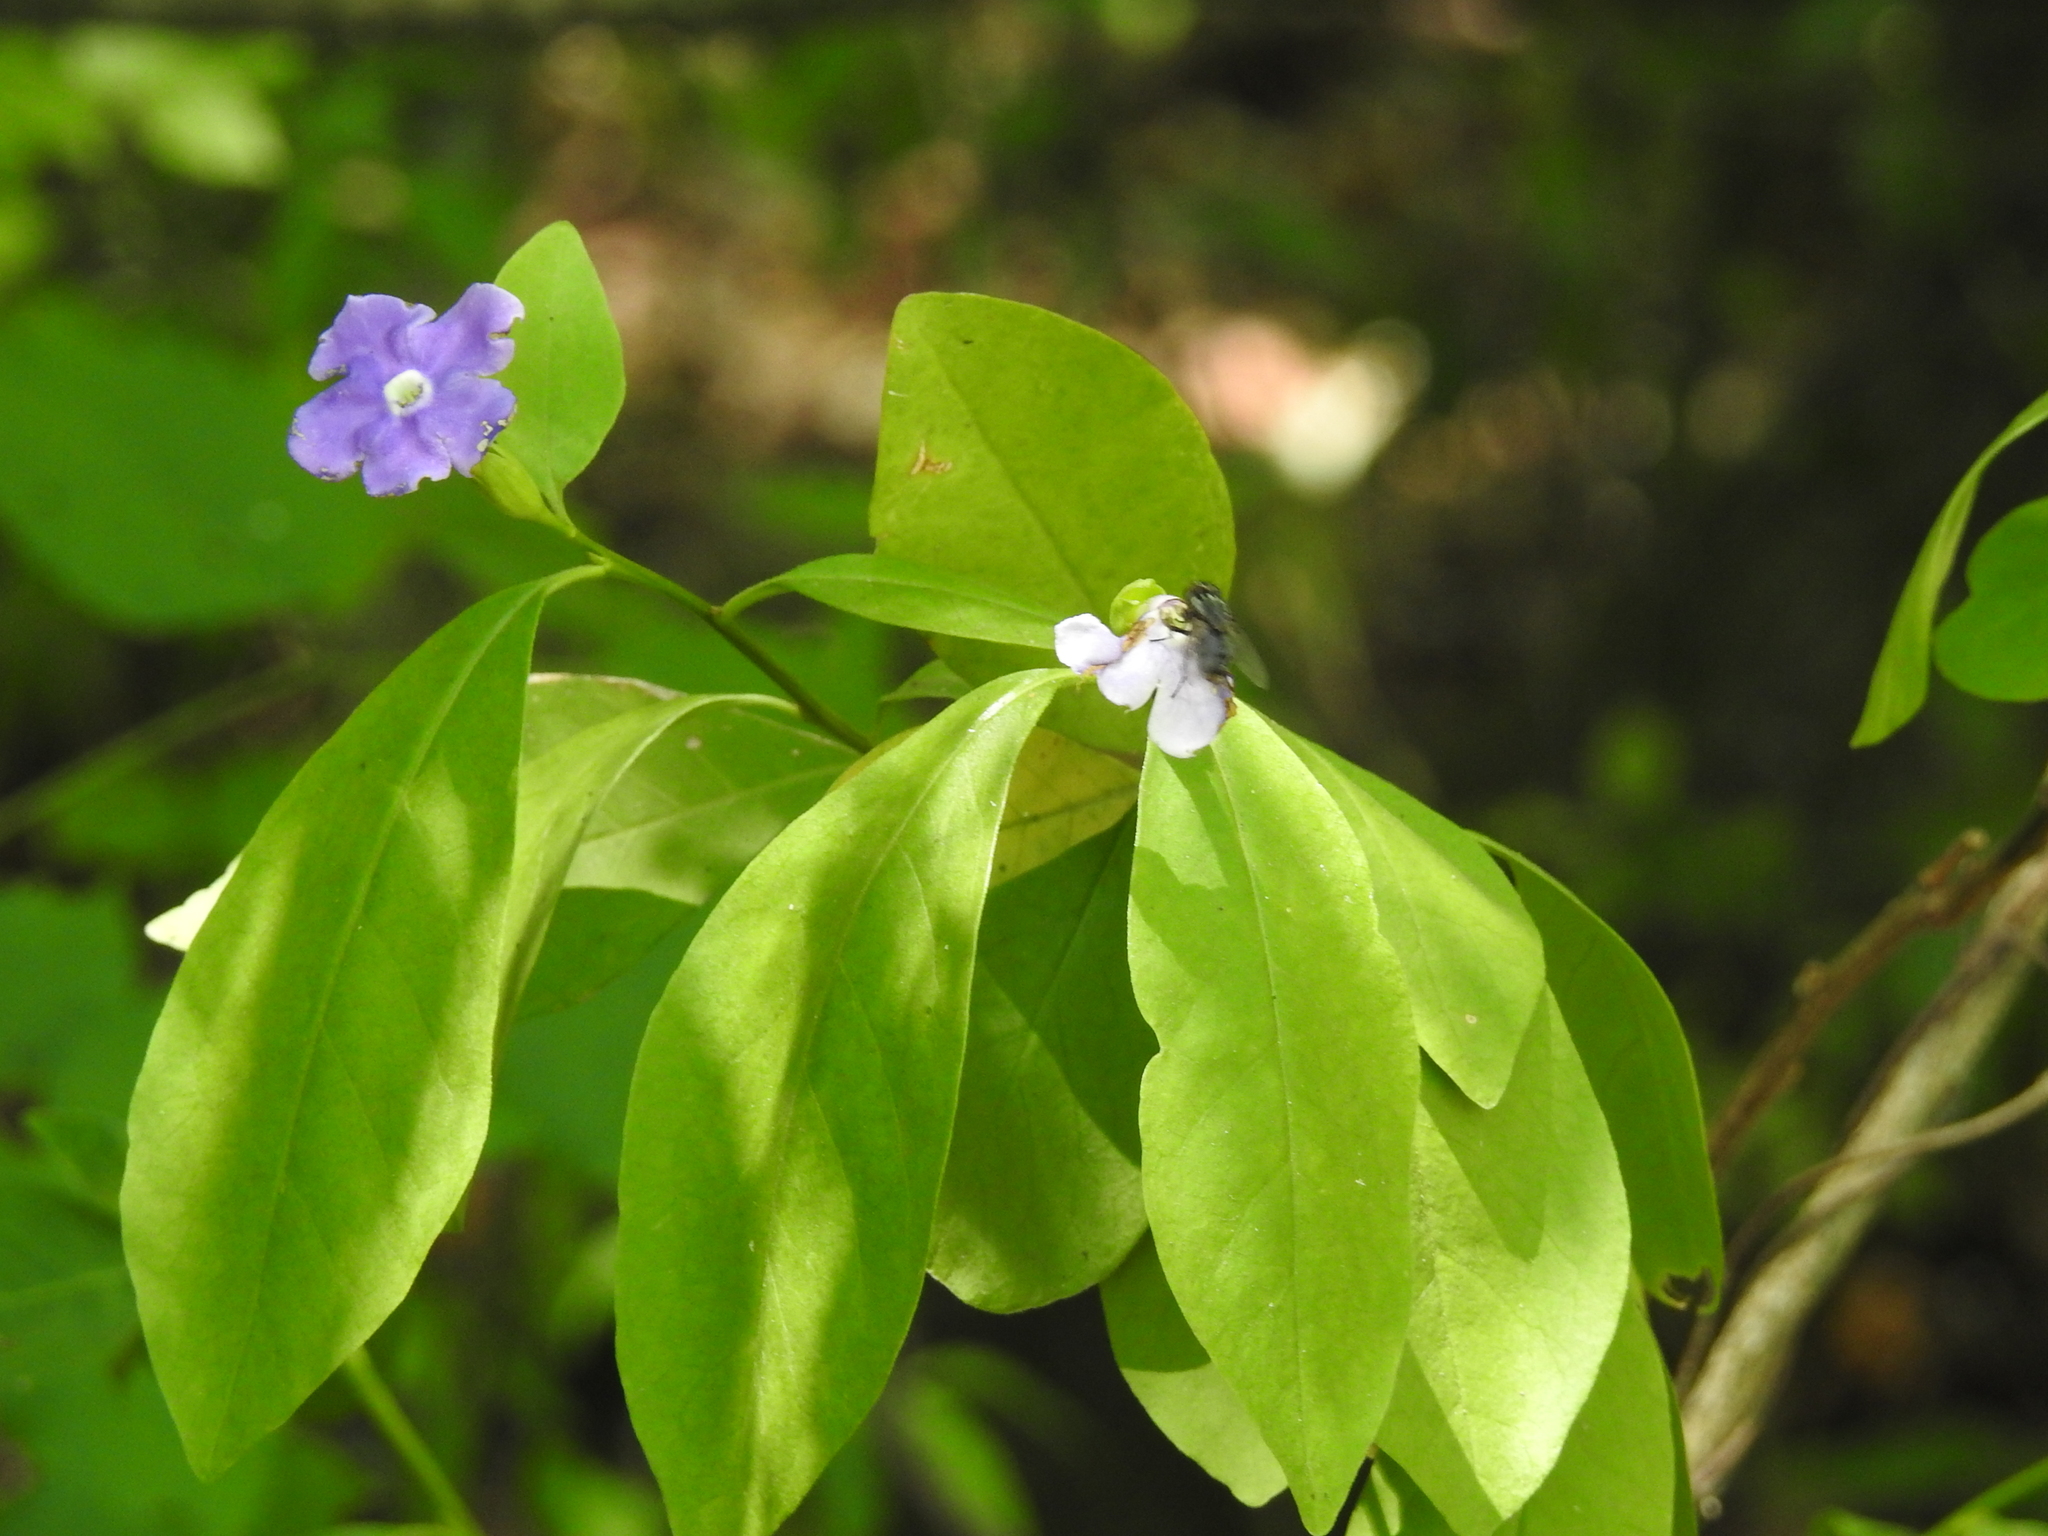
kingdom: Plantae
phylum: Tracheophyta
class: Magnoliopsida
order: Solanales
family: Solanaceae
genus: Brunfelsia
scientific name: Brunfelsia australis
